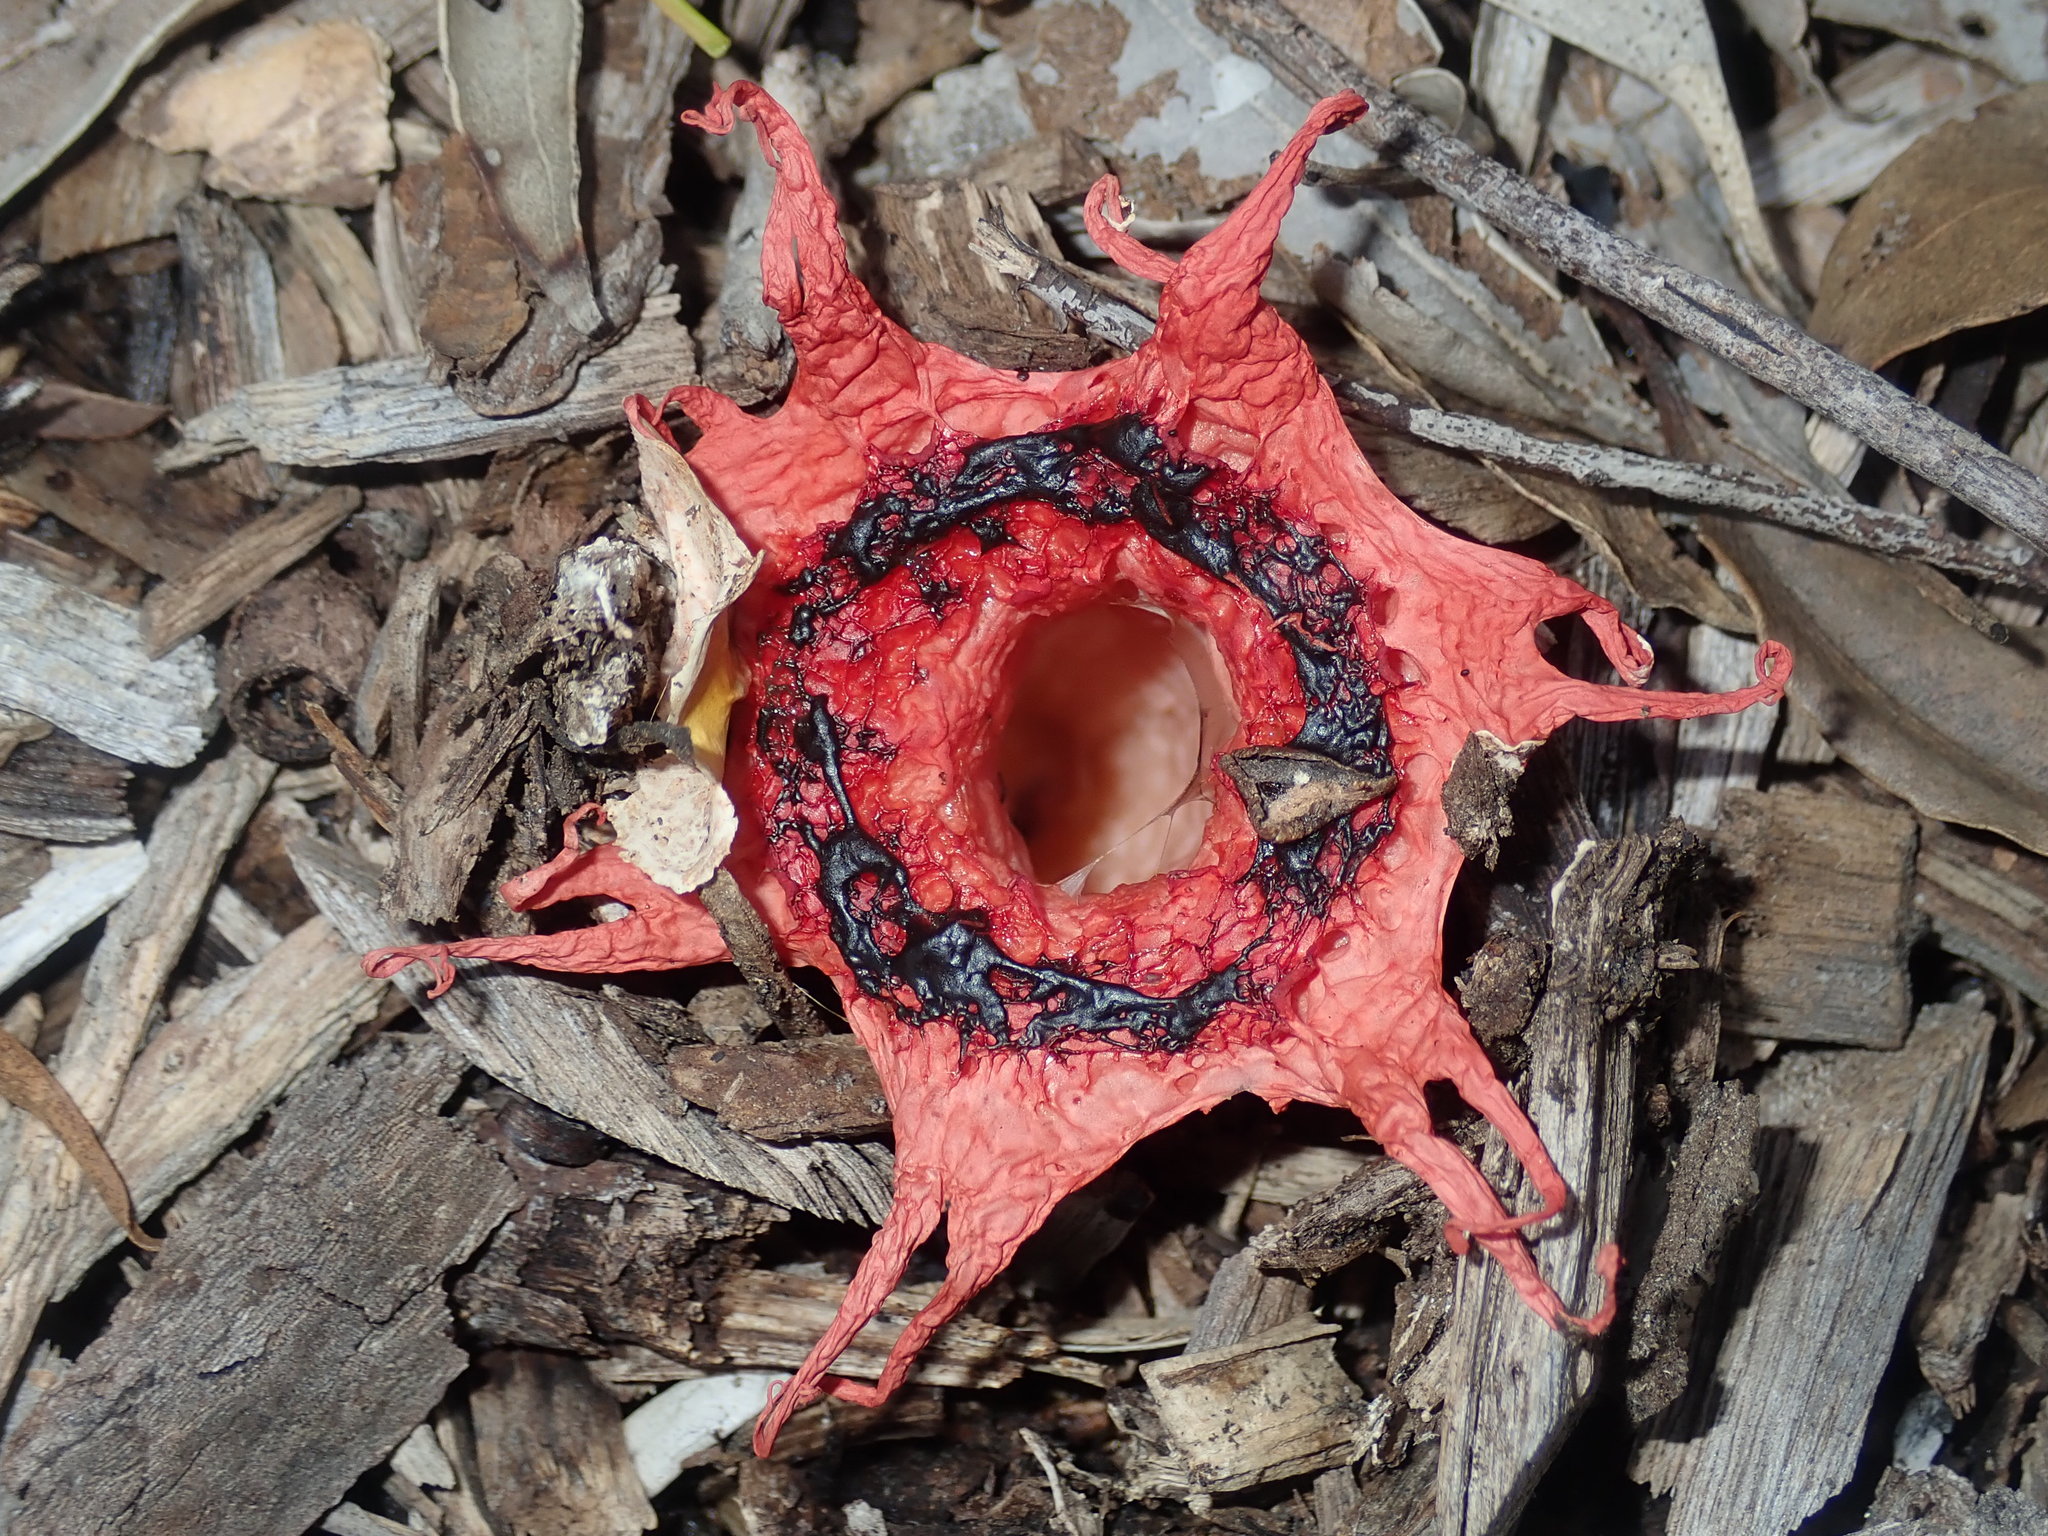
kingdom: Fungi
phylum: Basidiomycota
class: Agaricomycetes
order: Phallales
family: Phallaceae
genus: Aseroe
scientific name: Aseroe rubra
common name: Starfish fungus
